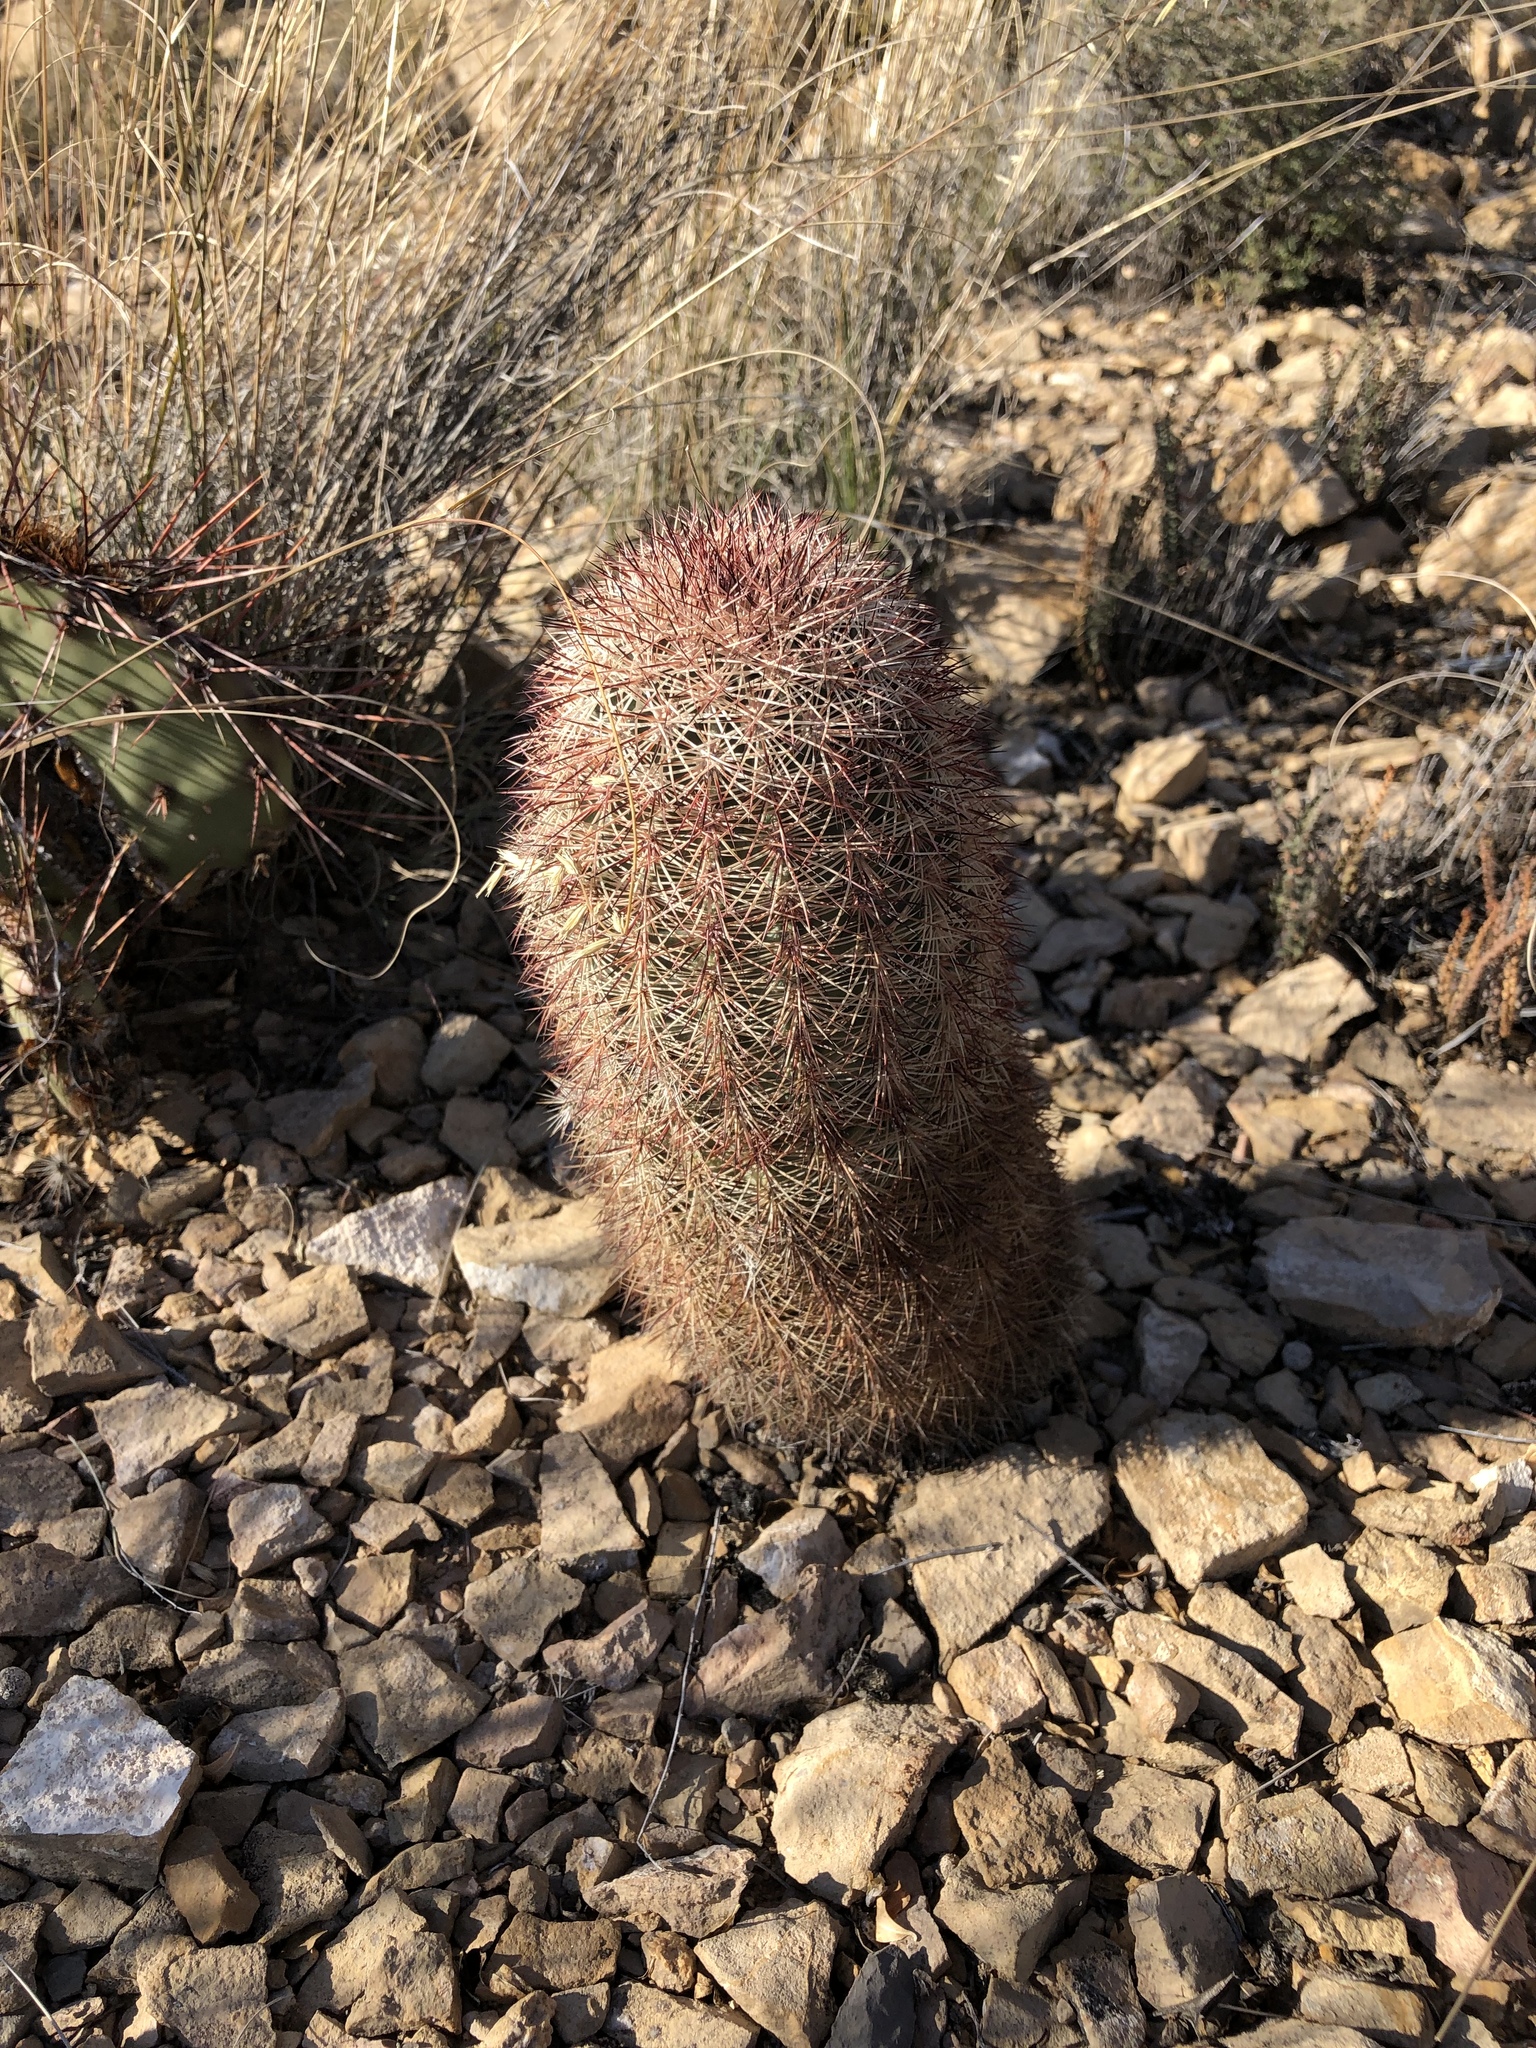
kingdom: Plantae
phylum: Tracheophyta
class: Magnoliopsida
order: Caryophyllales
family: Cactaceae
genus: Echinocereus
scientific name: Echinocereus dasyacanthus
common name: Spiny hedgehog cactus
